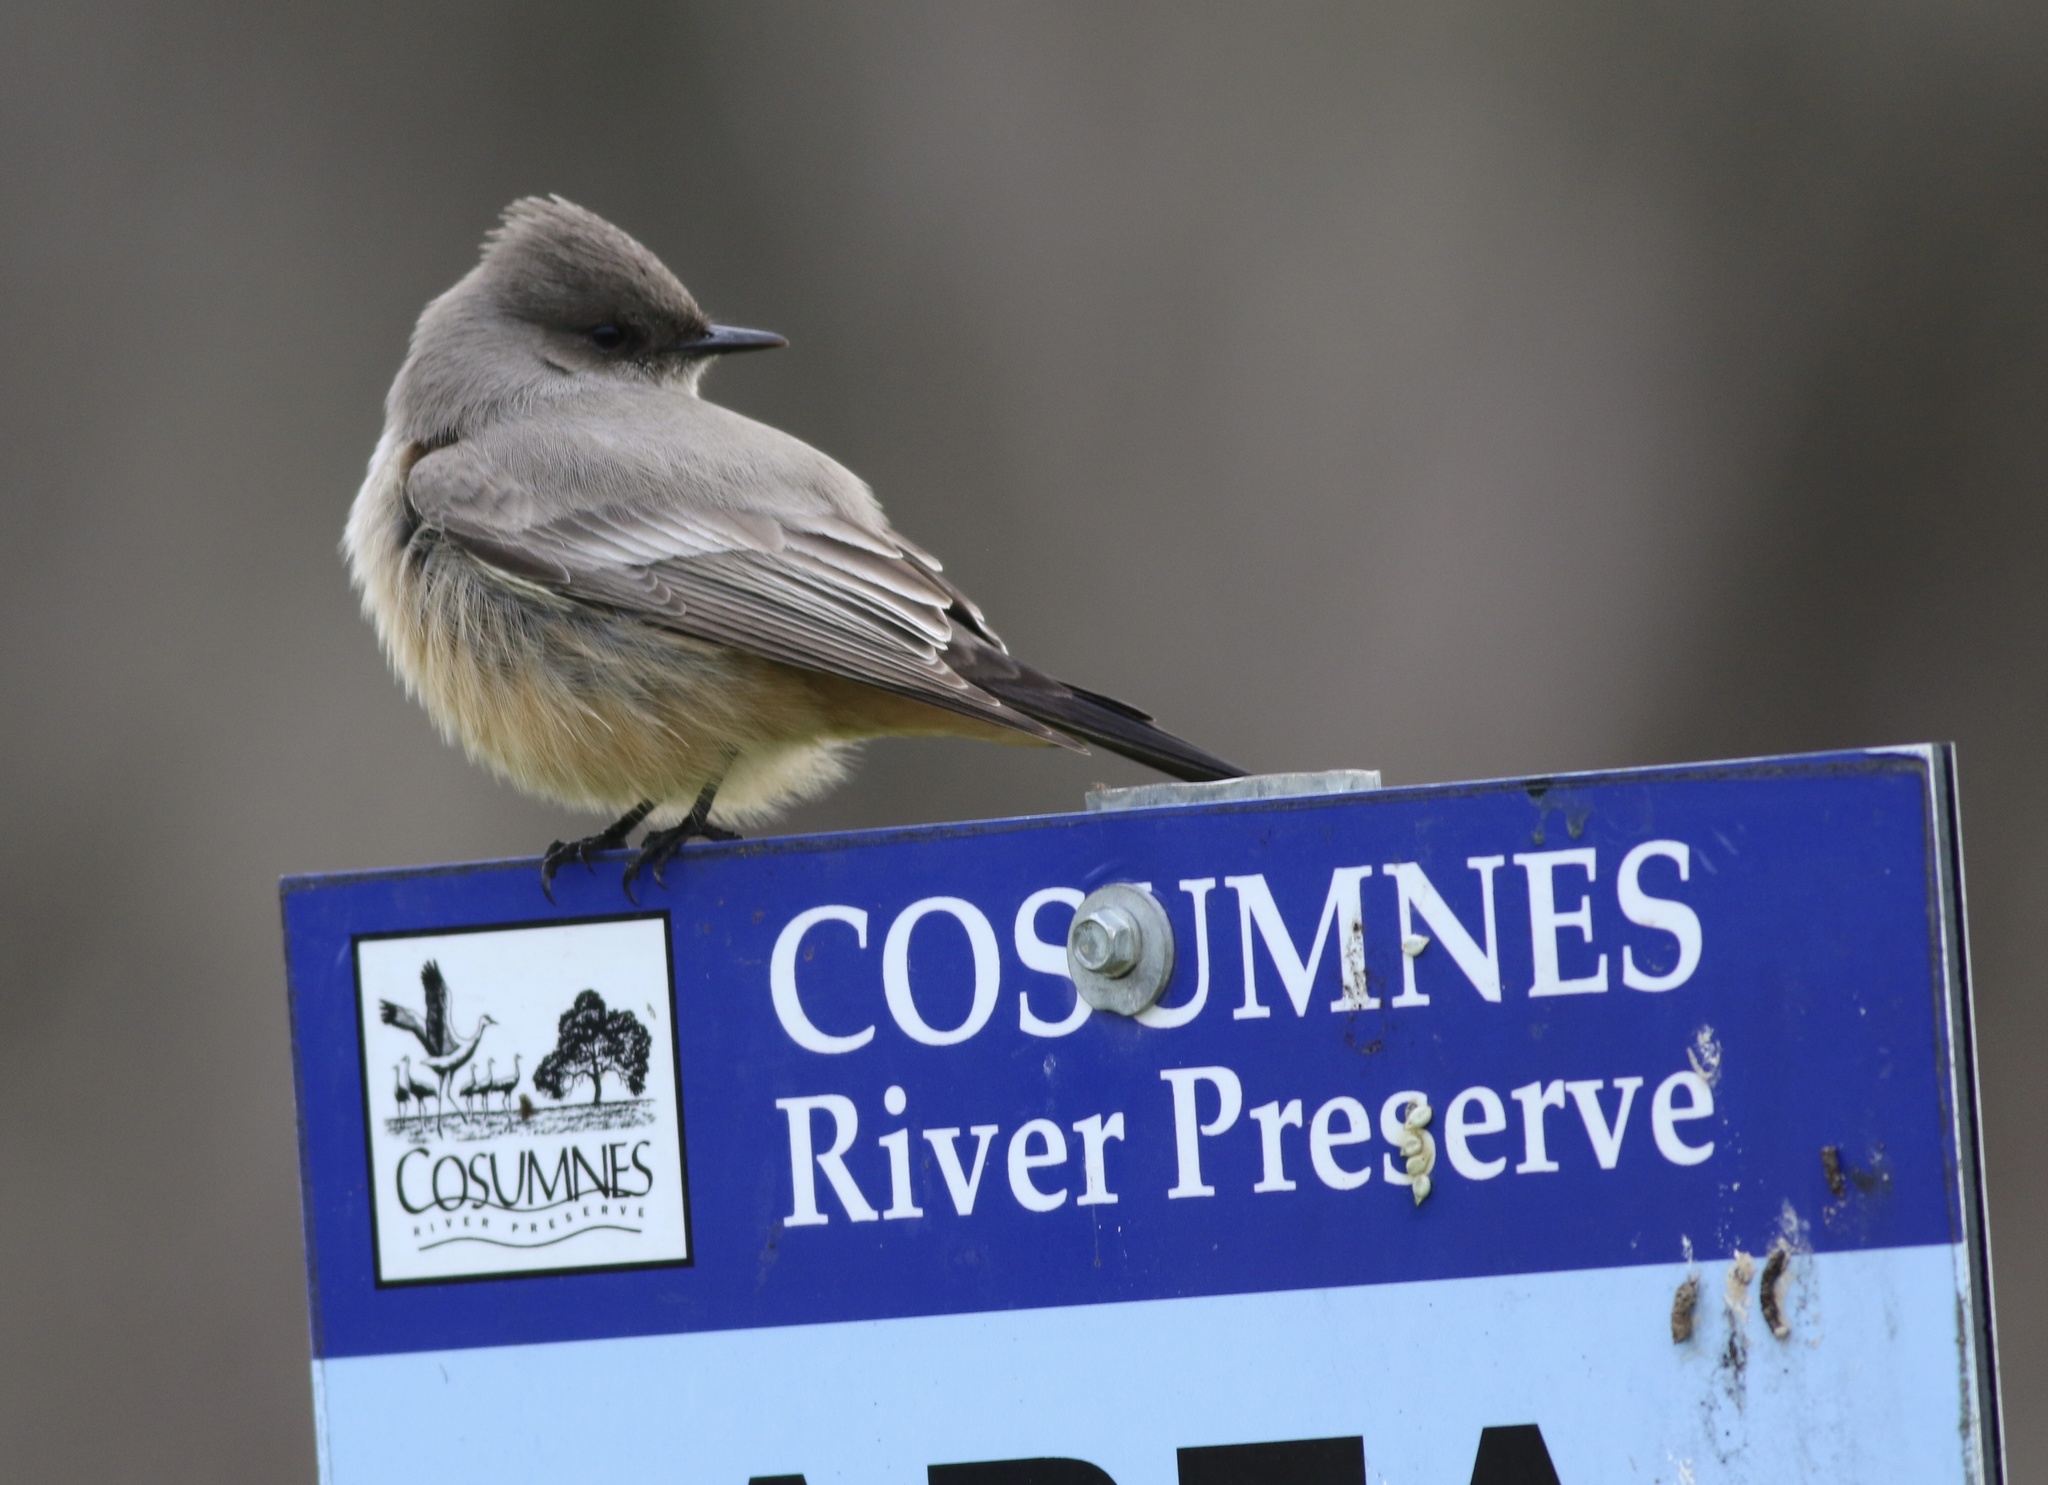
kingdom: Animalia
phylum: Chordata
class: Aves
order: Passeriformes
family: Tyrannidae
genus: Sayornis
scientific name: Sayornis saya
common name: Say's phoebe
